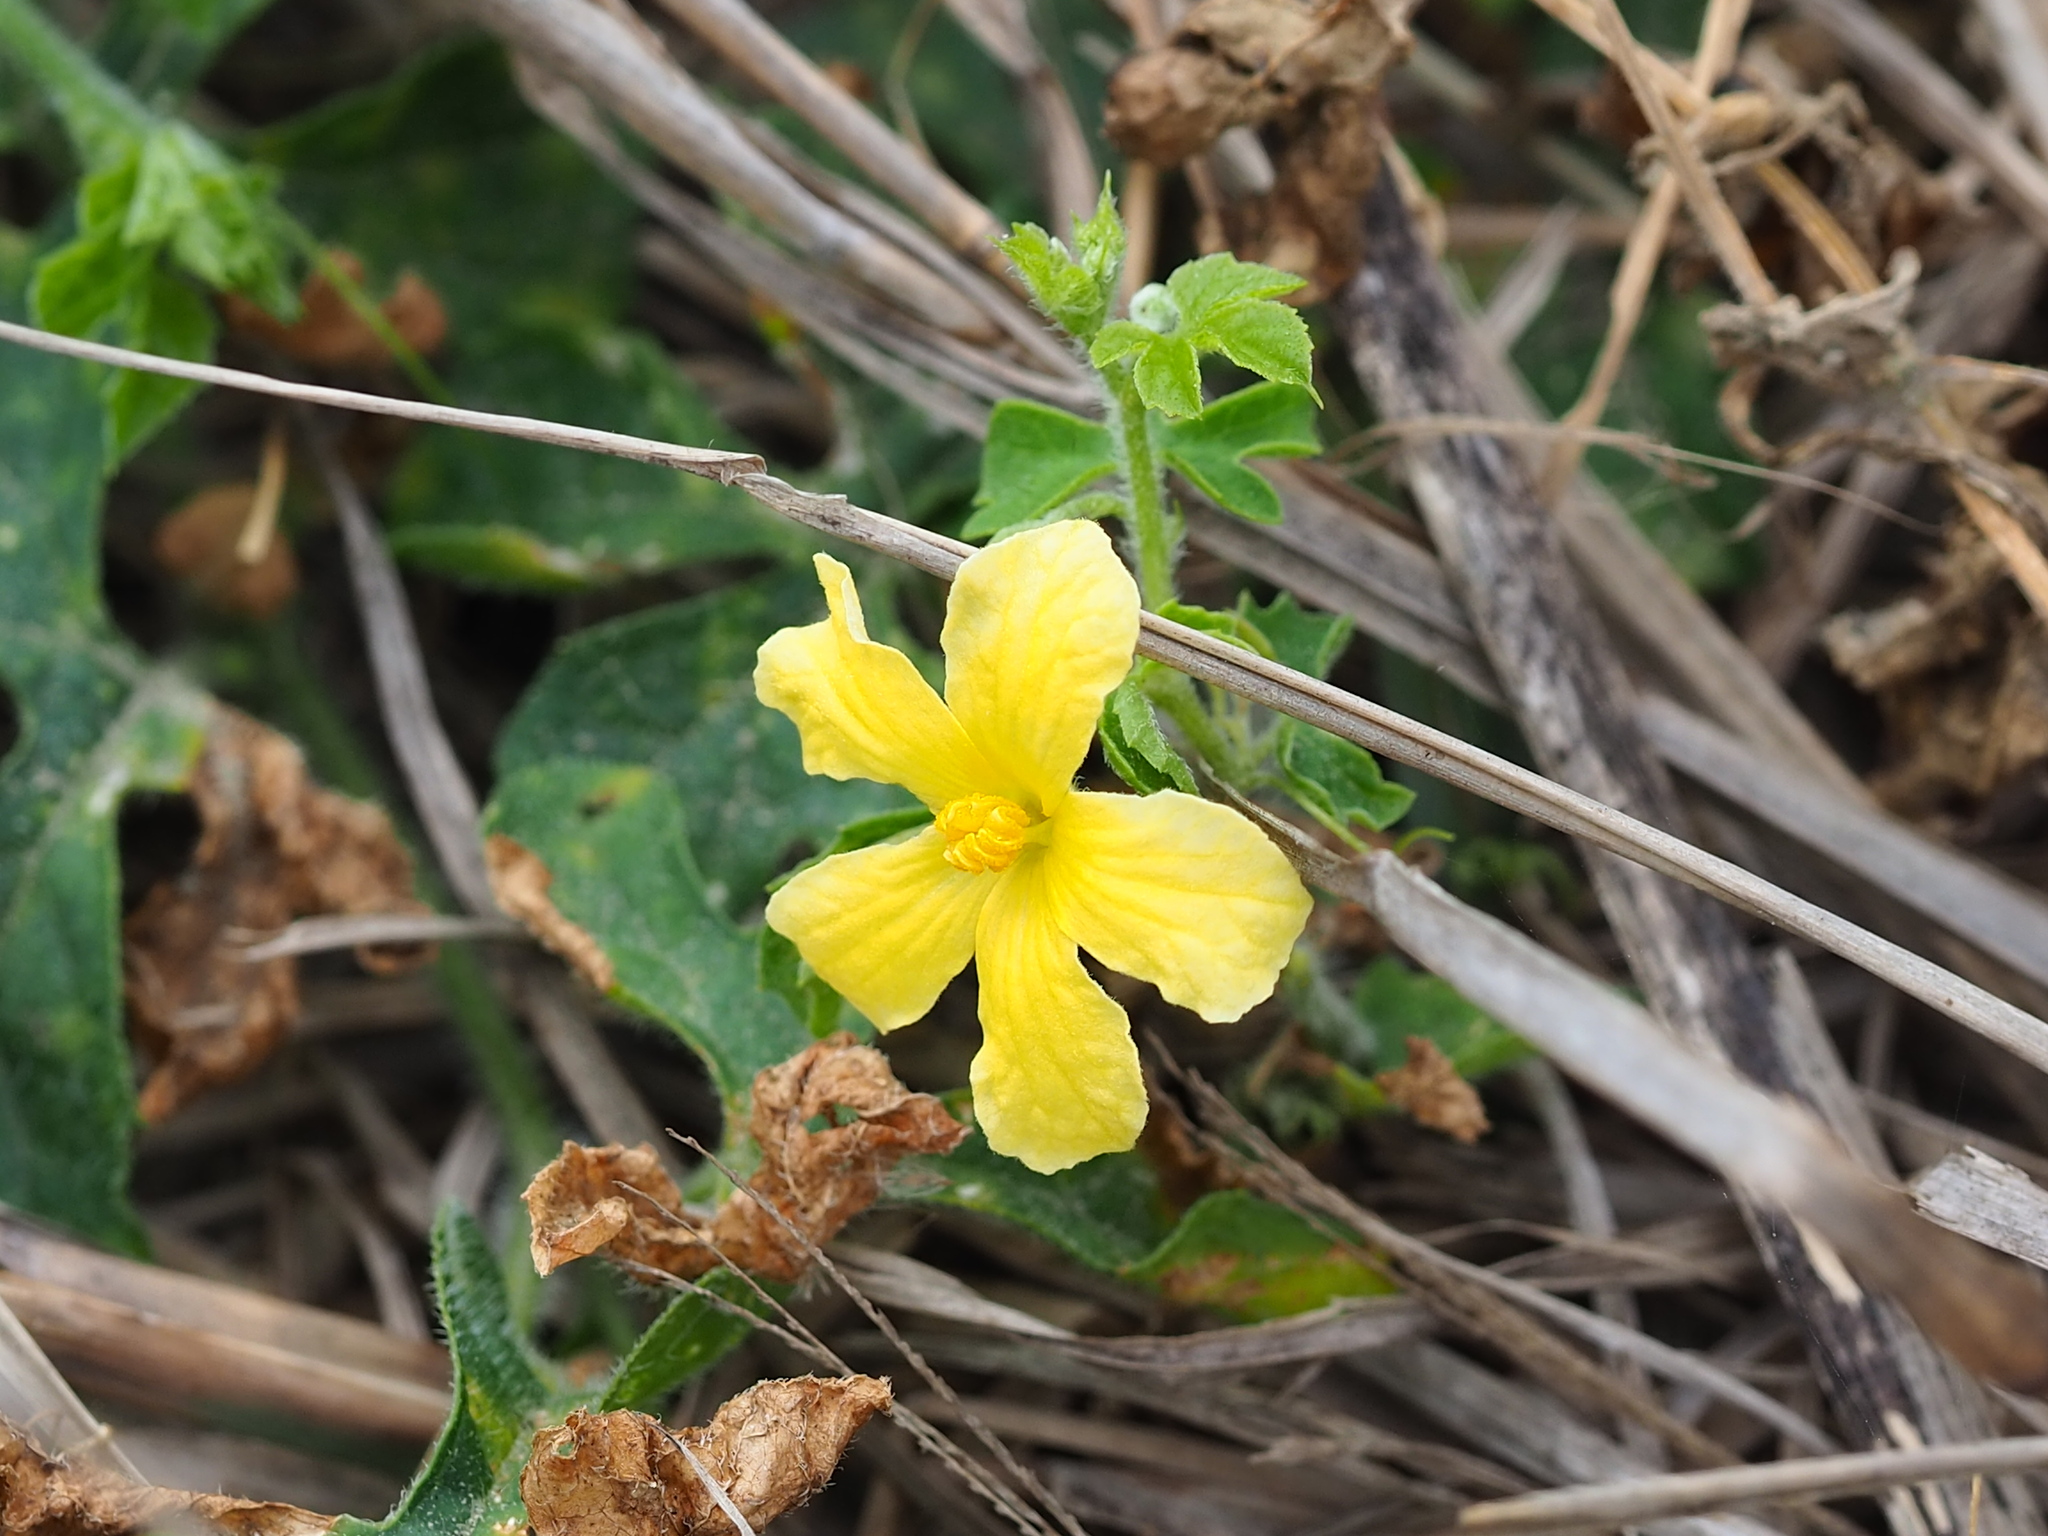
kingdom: Plantae
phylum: Tracheophyta
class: Magnoliopsida
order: Cucurbitales
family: Cucurbitaceae
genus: Momordica
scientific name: Momordica charantia
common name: Balsampear
